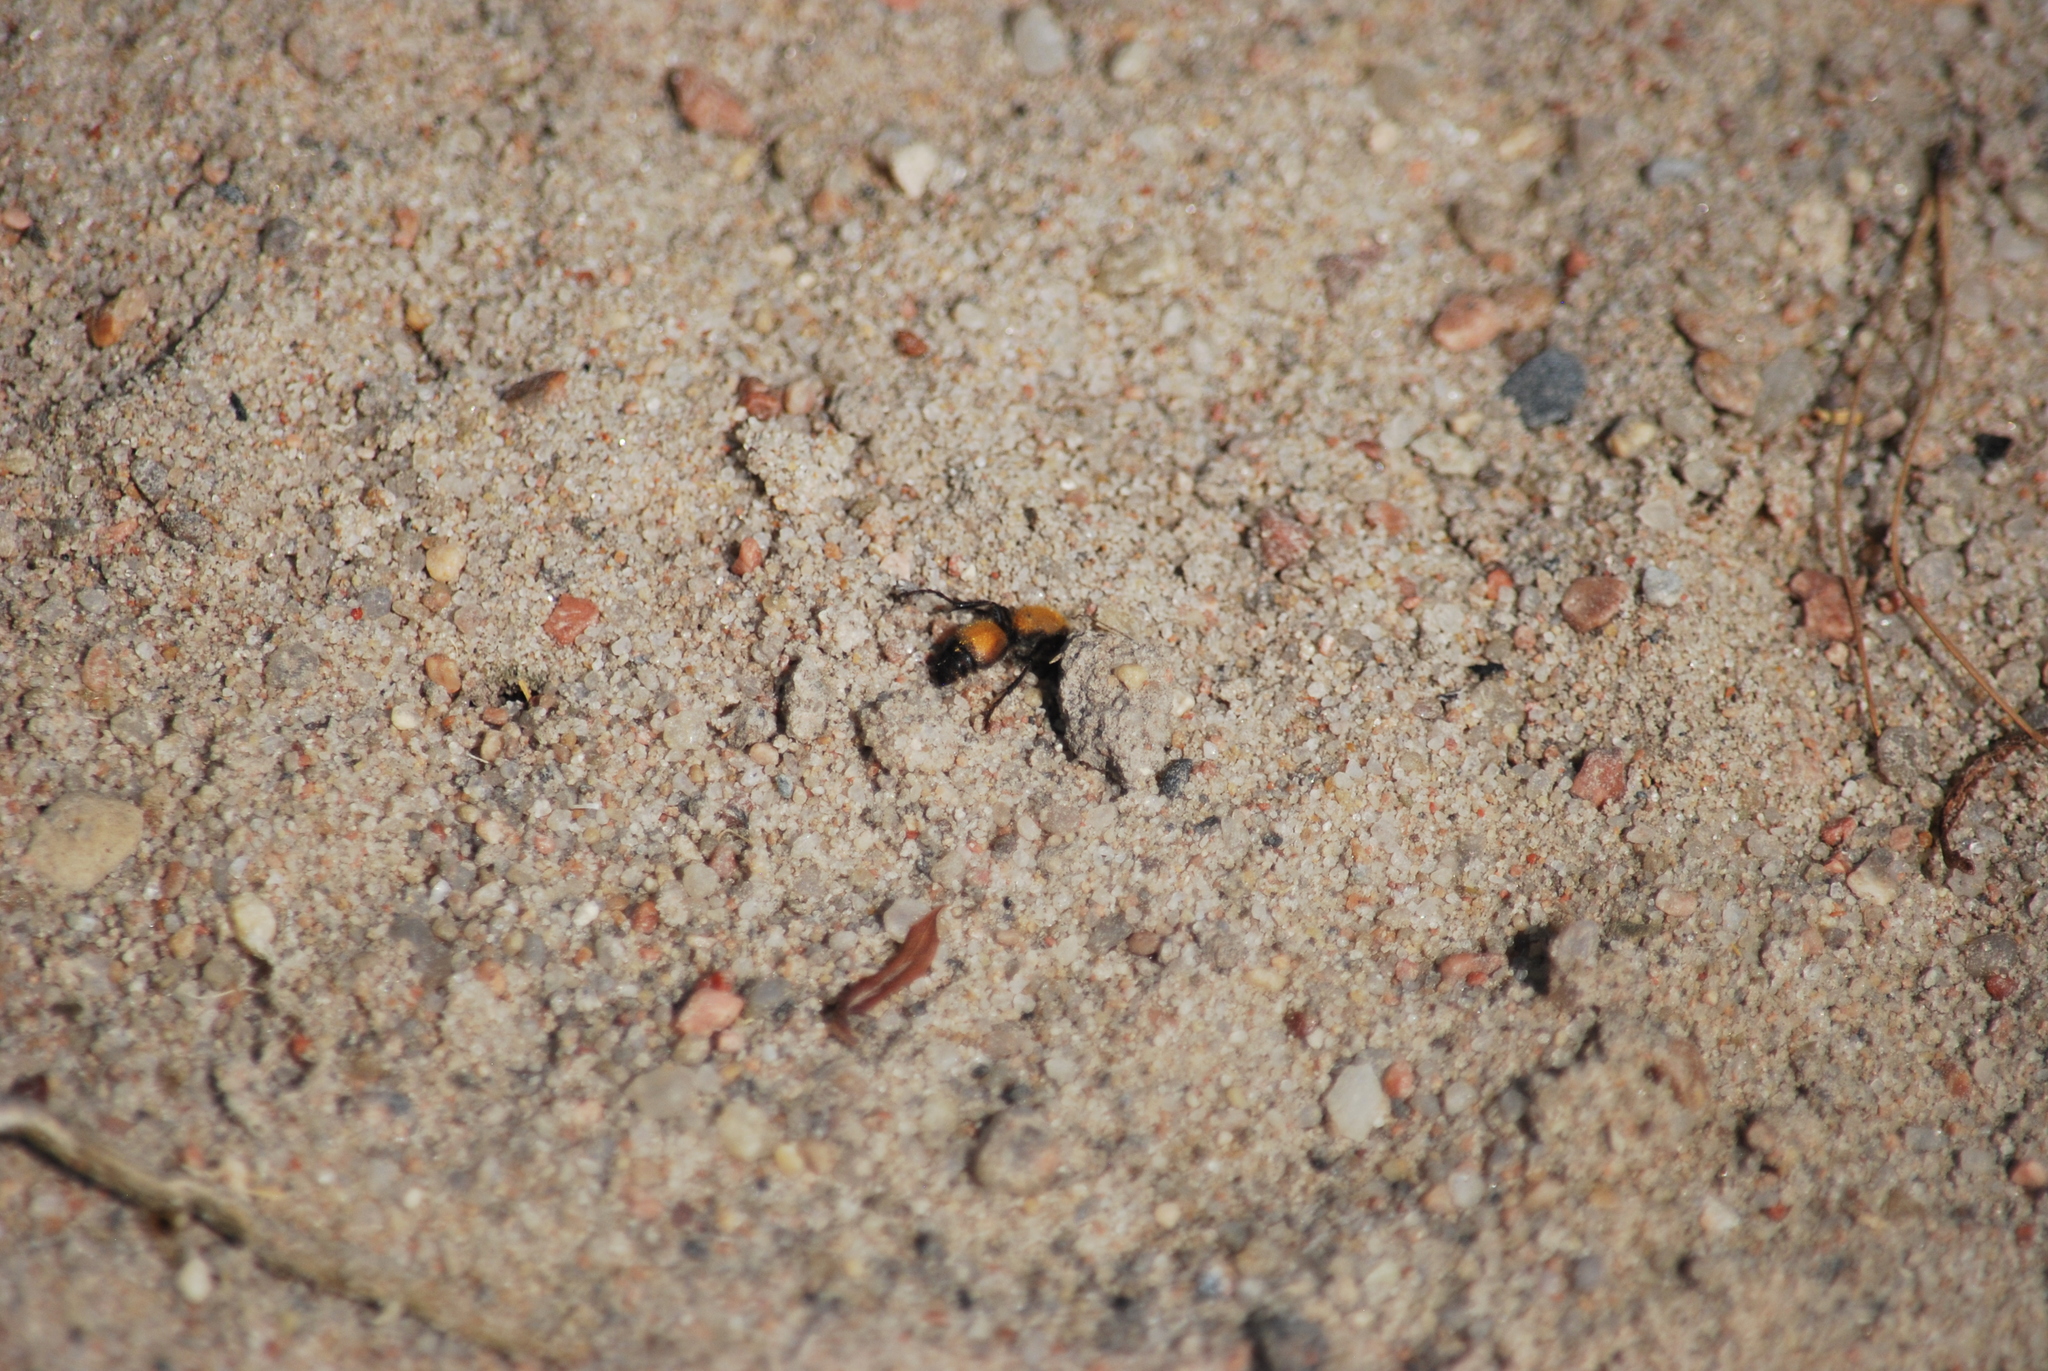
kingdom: Animalia
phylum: Arthropoda
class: Insecta
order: Hymenoptera
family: Mutillidae
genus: Dasymutilla
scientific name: Dasymutilla
